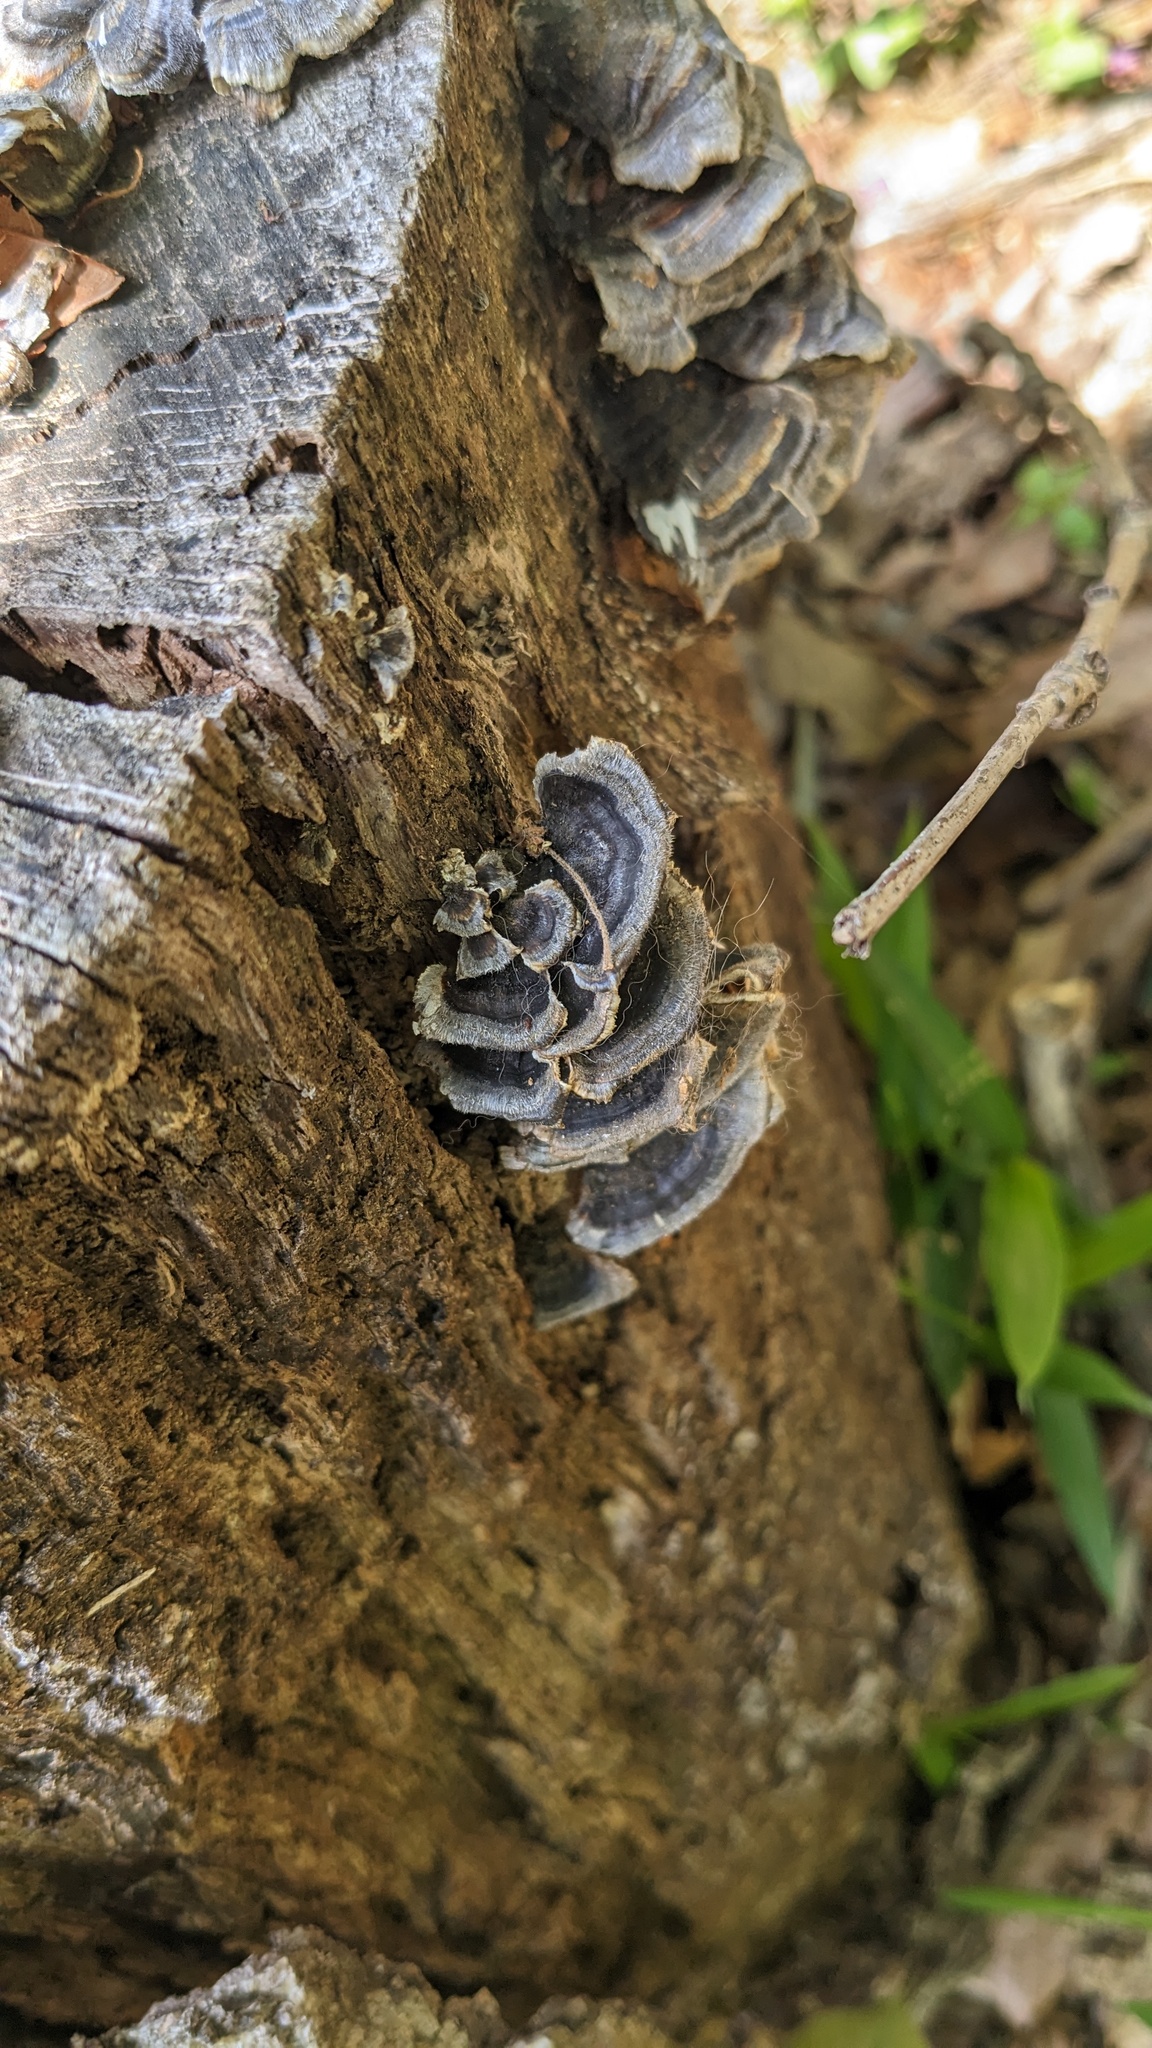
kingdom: Fungi
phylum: Basidiomycota
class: Agaricomycetes
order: Polyporales
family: Polyporaceae
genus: Trametes
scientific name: Trametes versicolor
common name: Turkeytail
